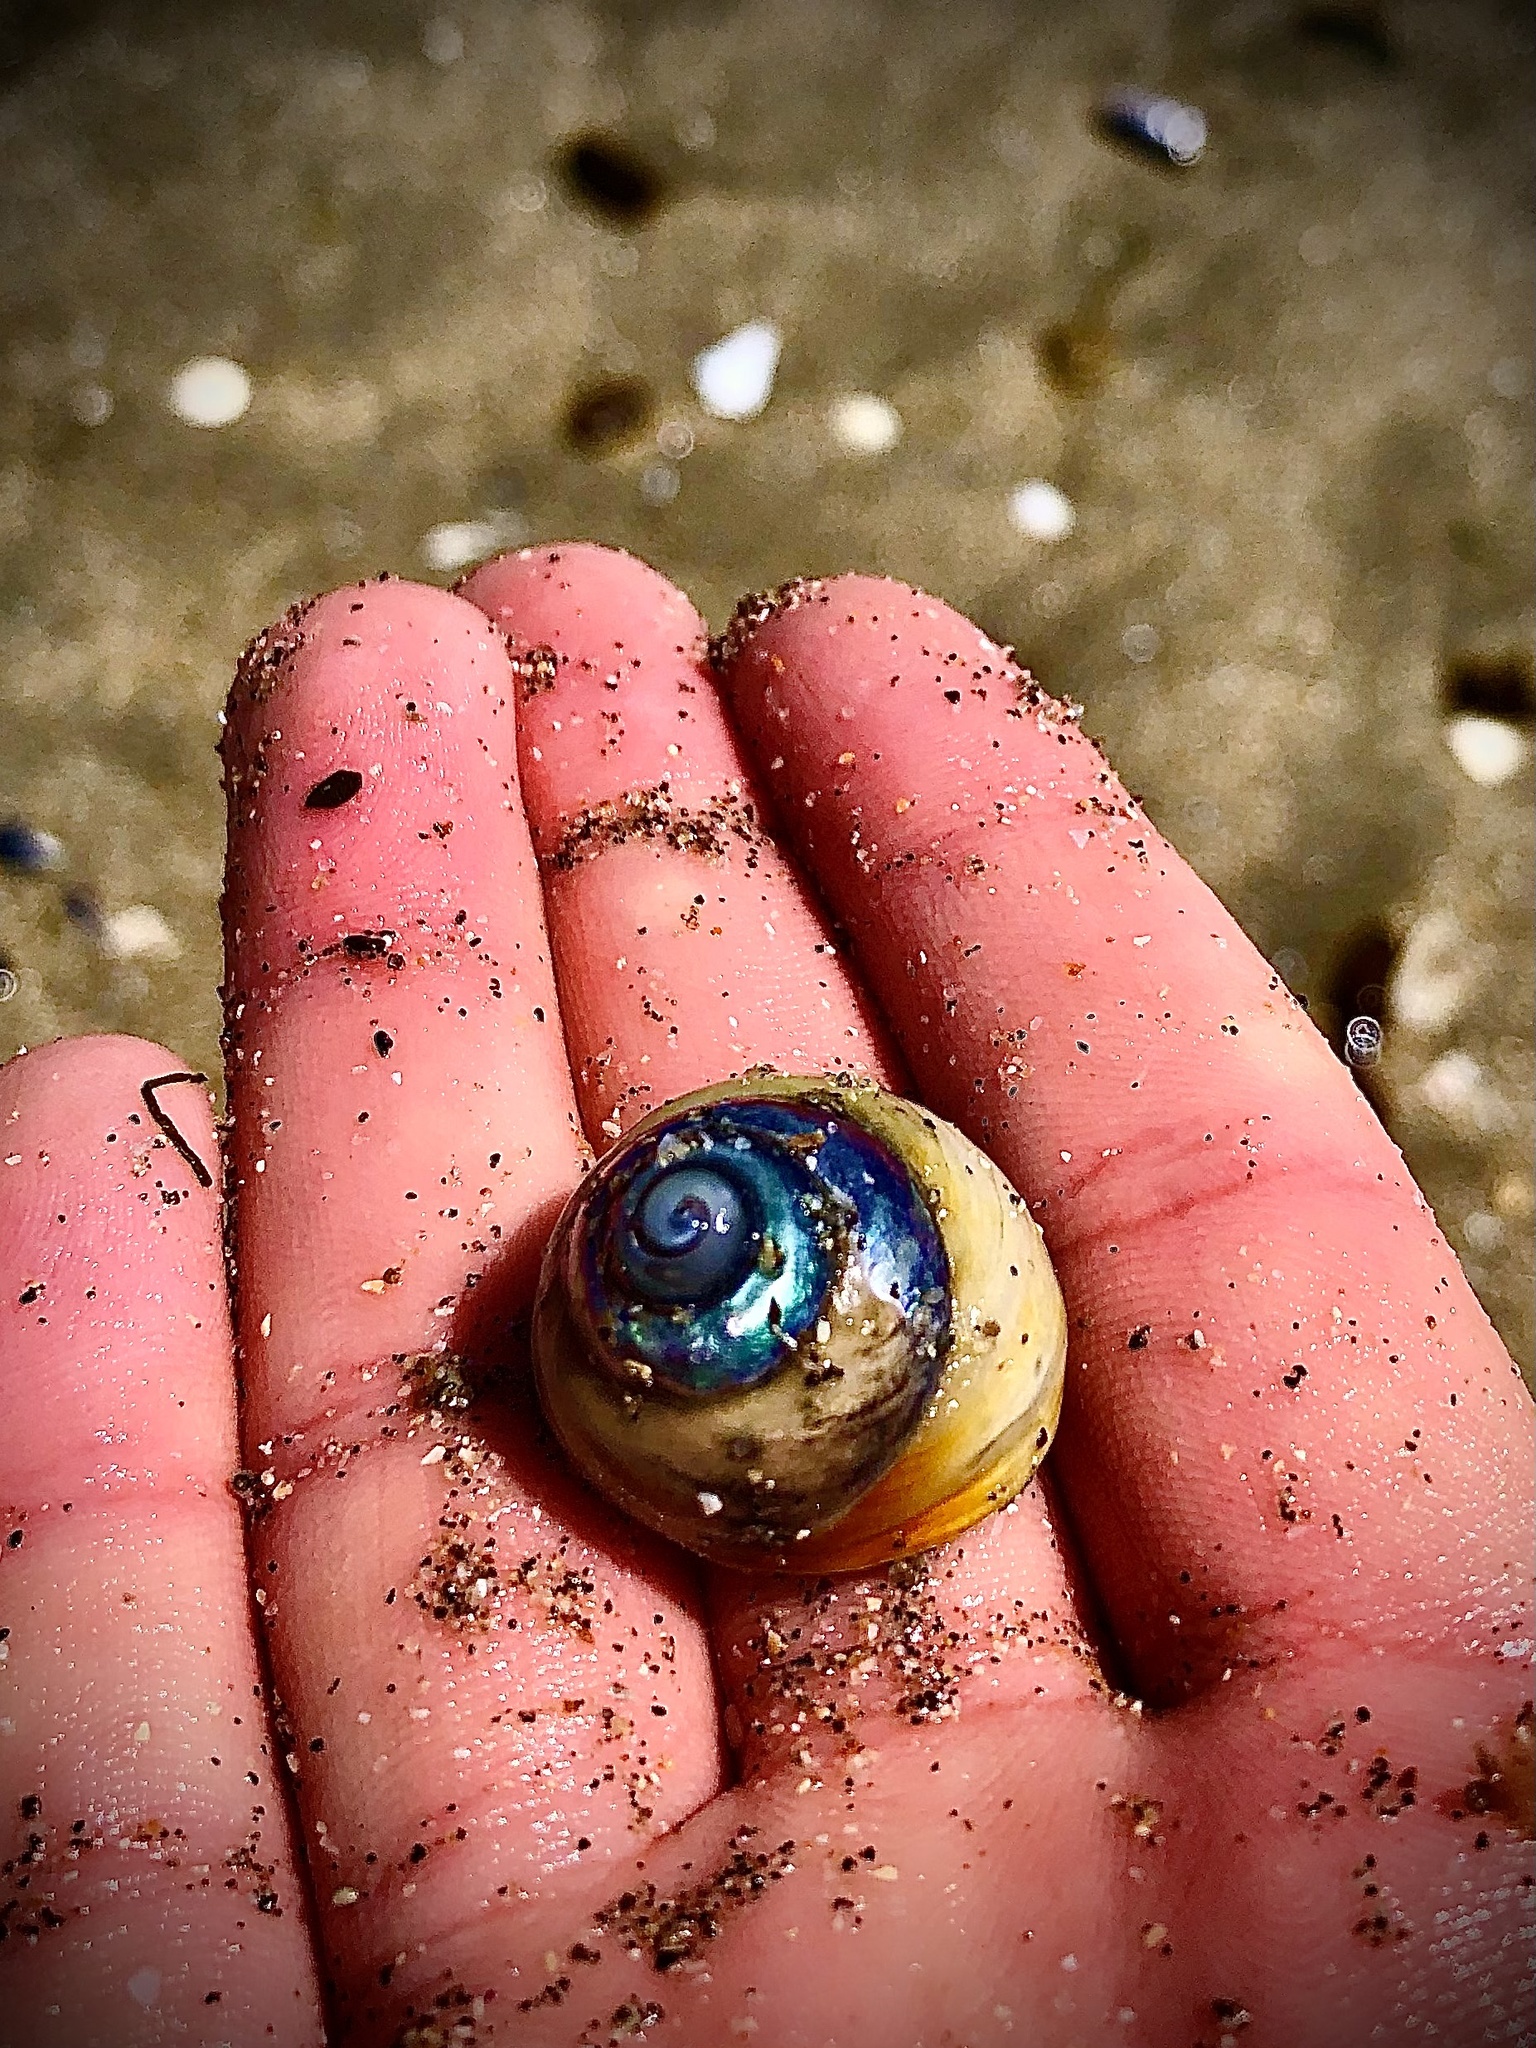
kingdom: Animalia
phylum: Mollusca
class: Gastropoda
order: Trochida
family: Tegulidae
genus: Tegula
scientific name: Tegula brunnea
